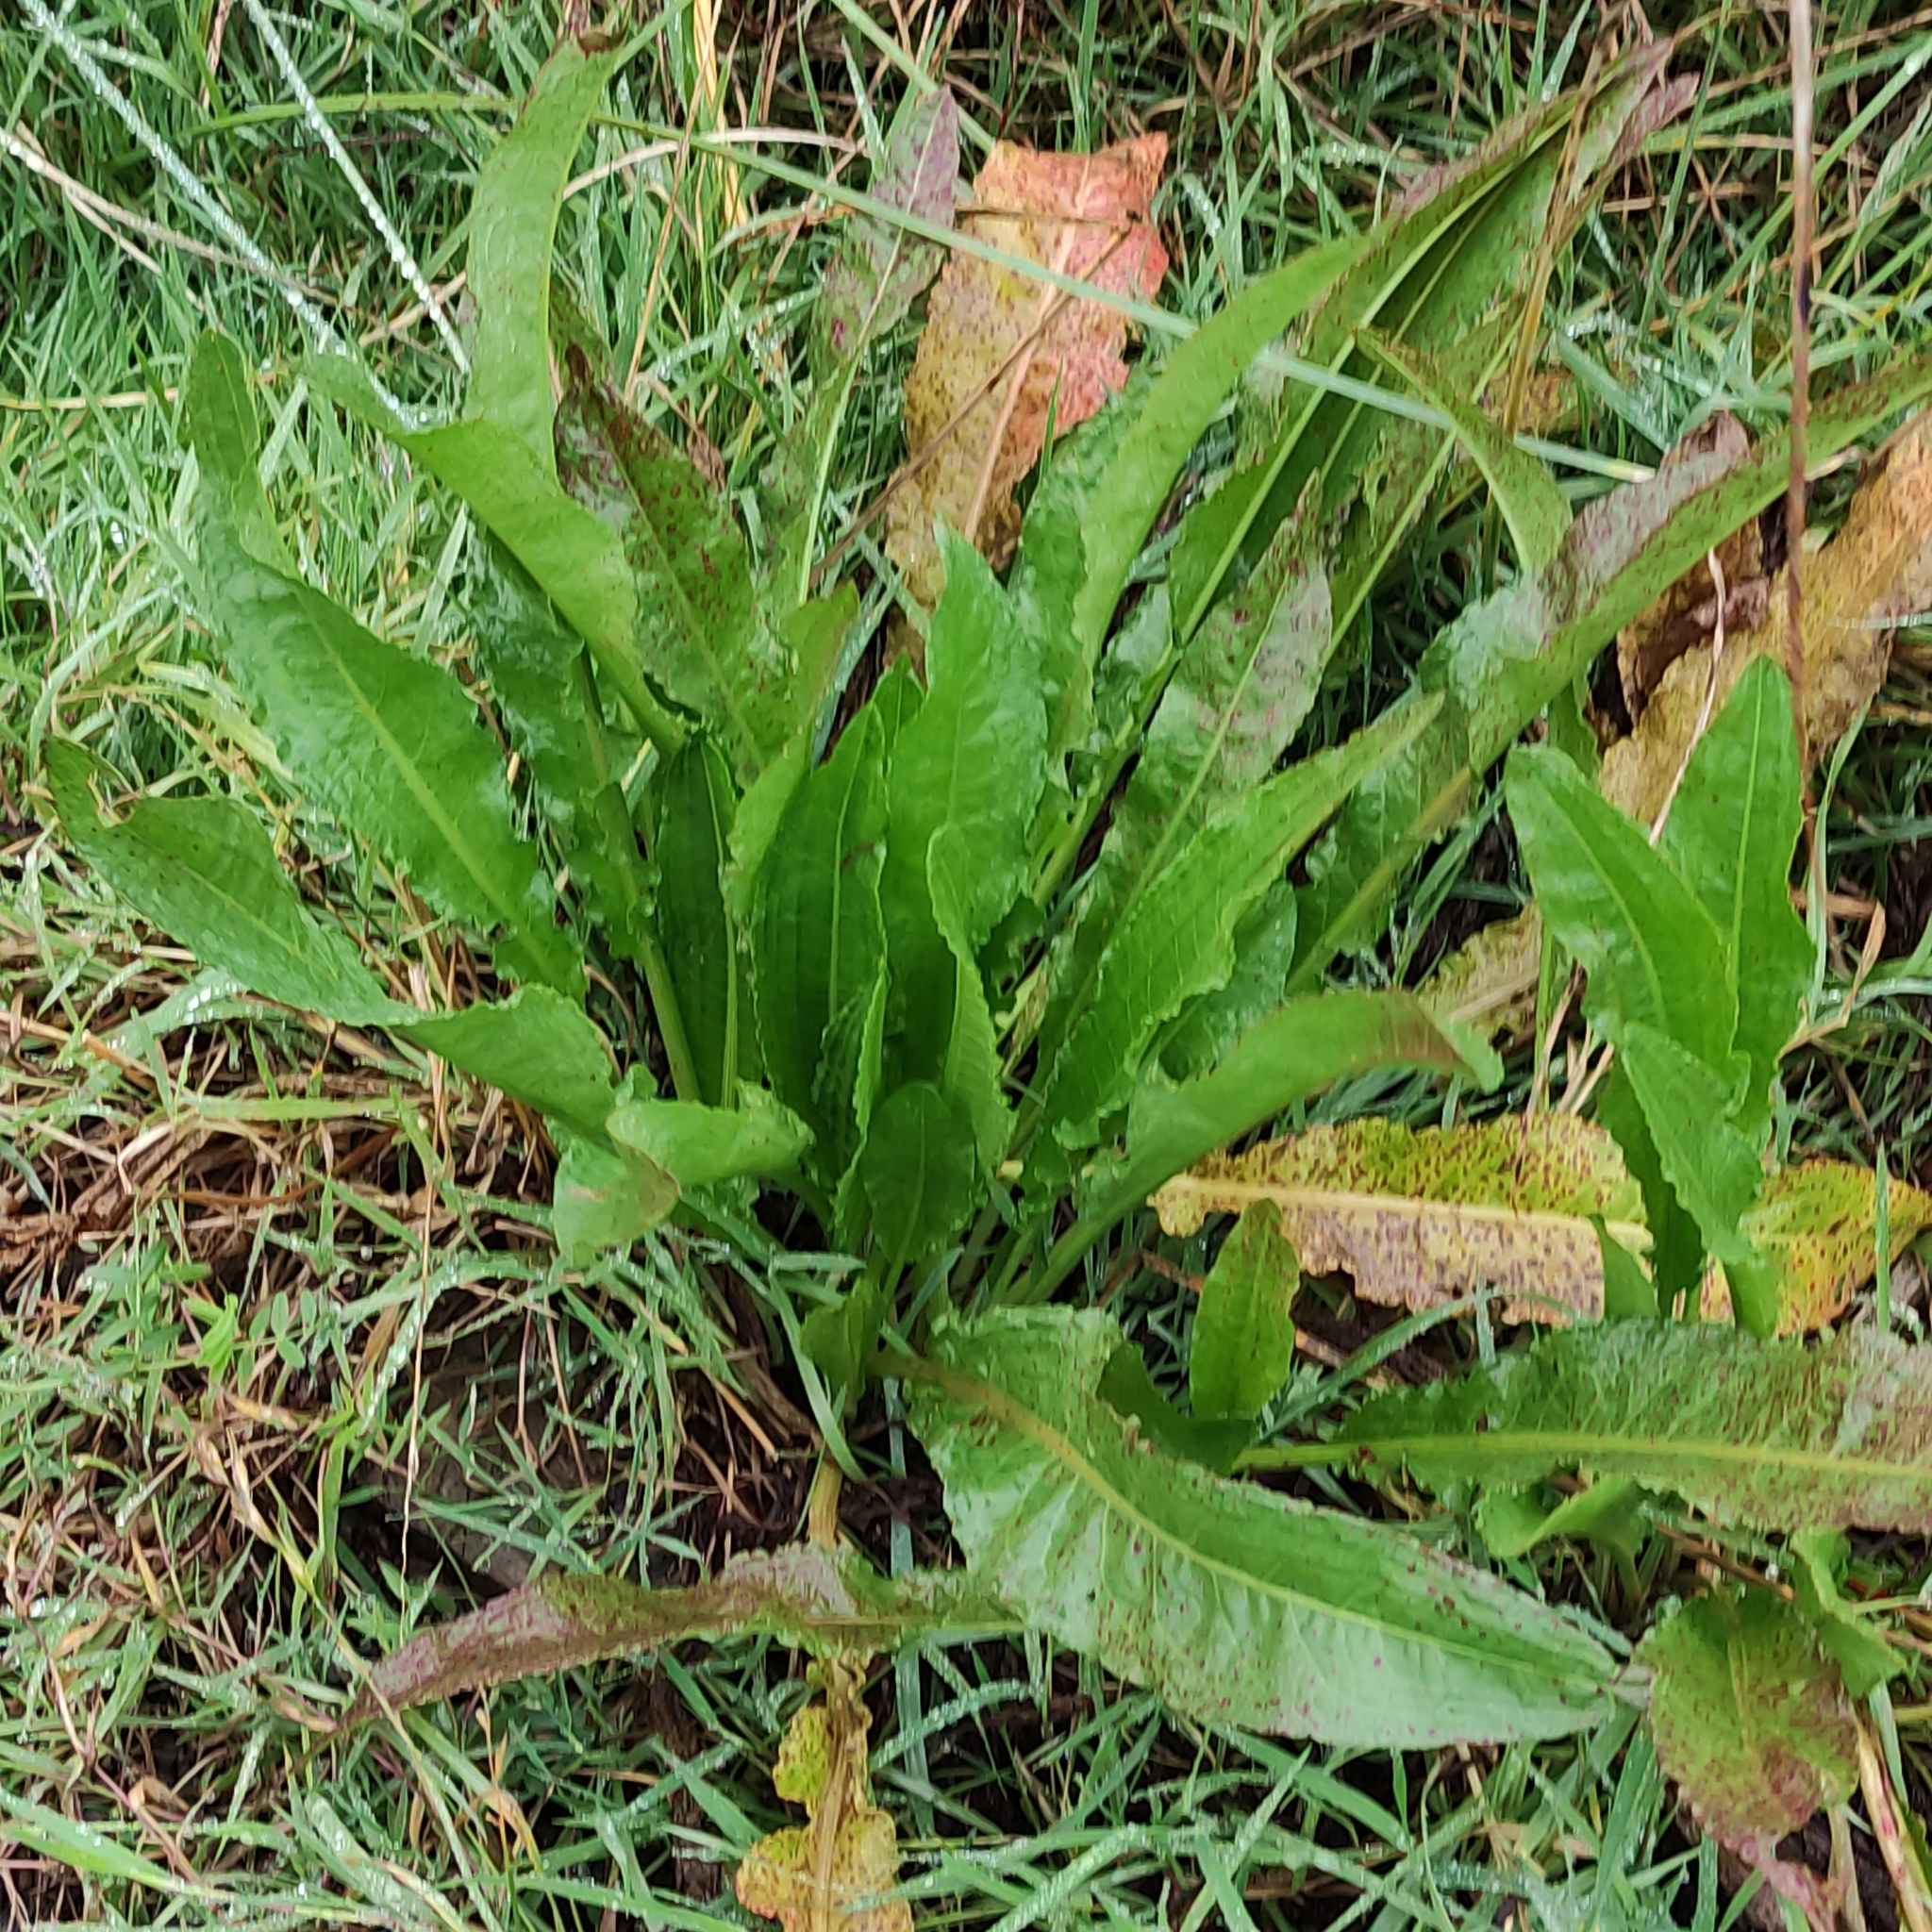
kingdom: Plantae
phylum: Tracheophyta
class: Magnoliopsida
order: Caryophyllales
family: Polygonaceae
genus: Rumex
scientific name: Rumex crispus
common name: Curled dock
